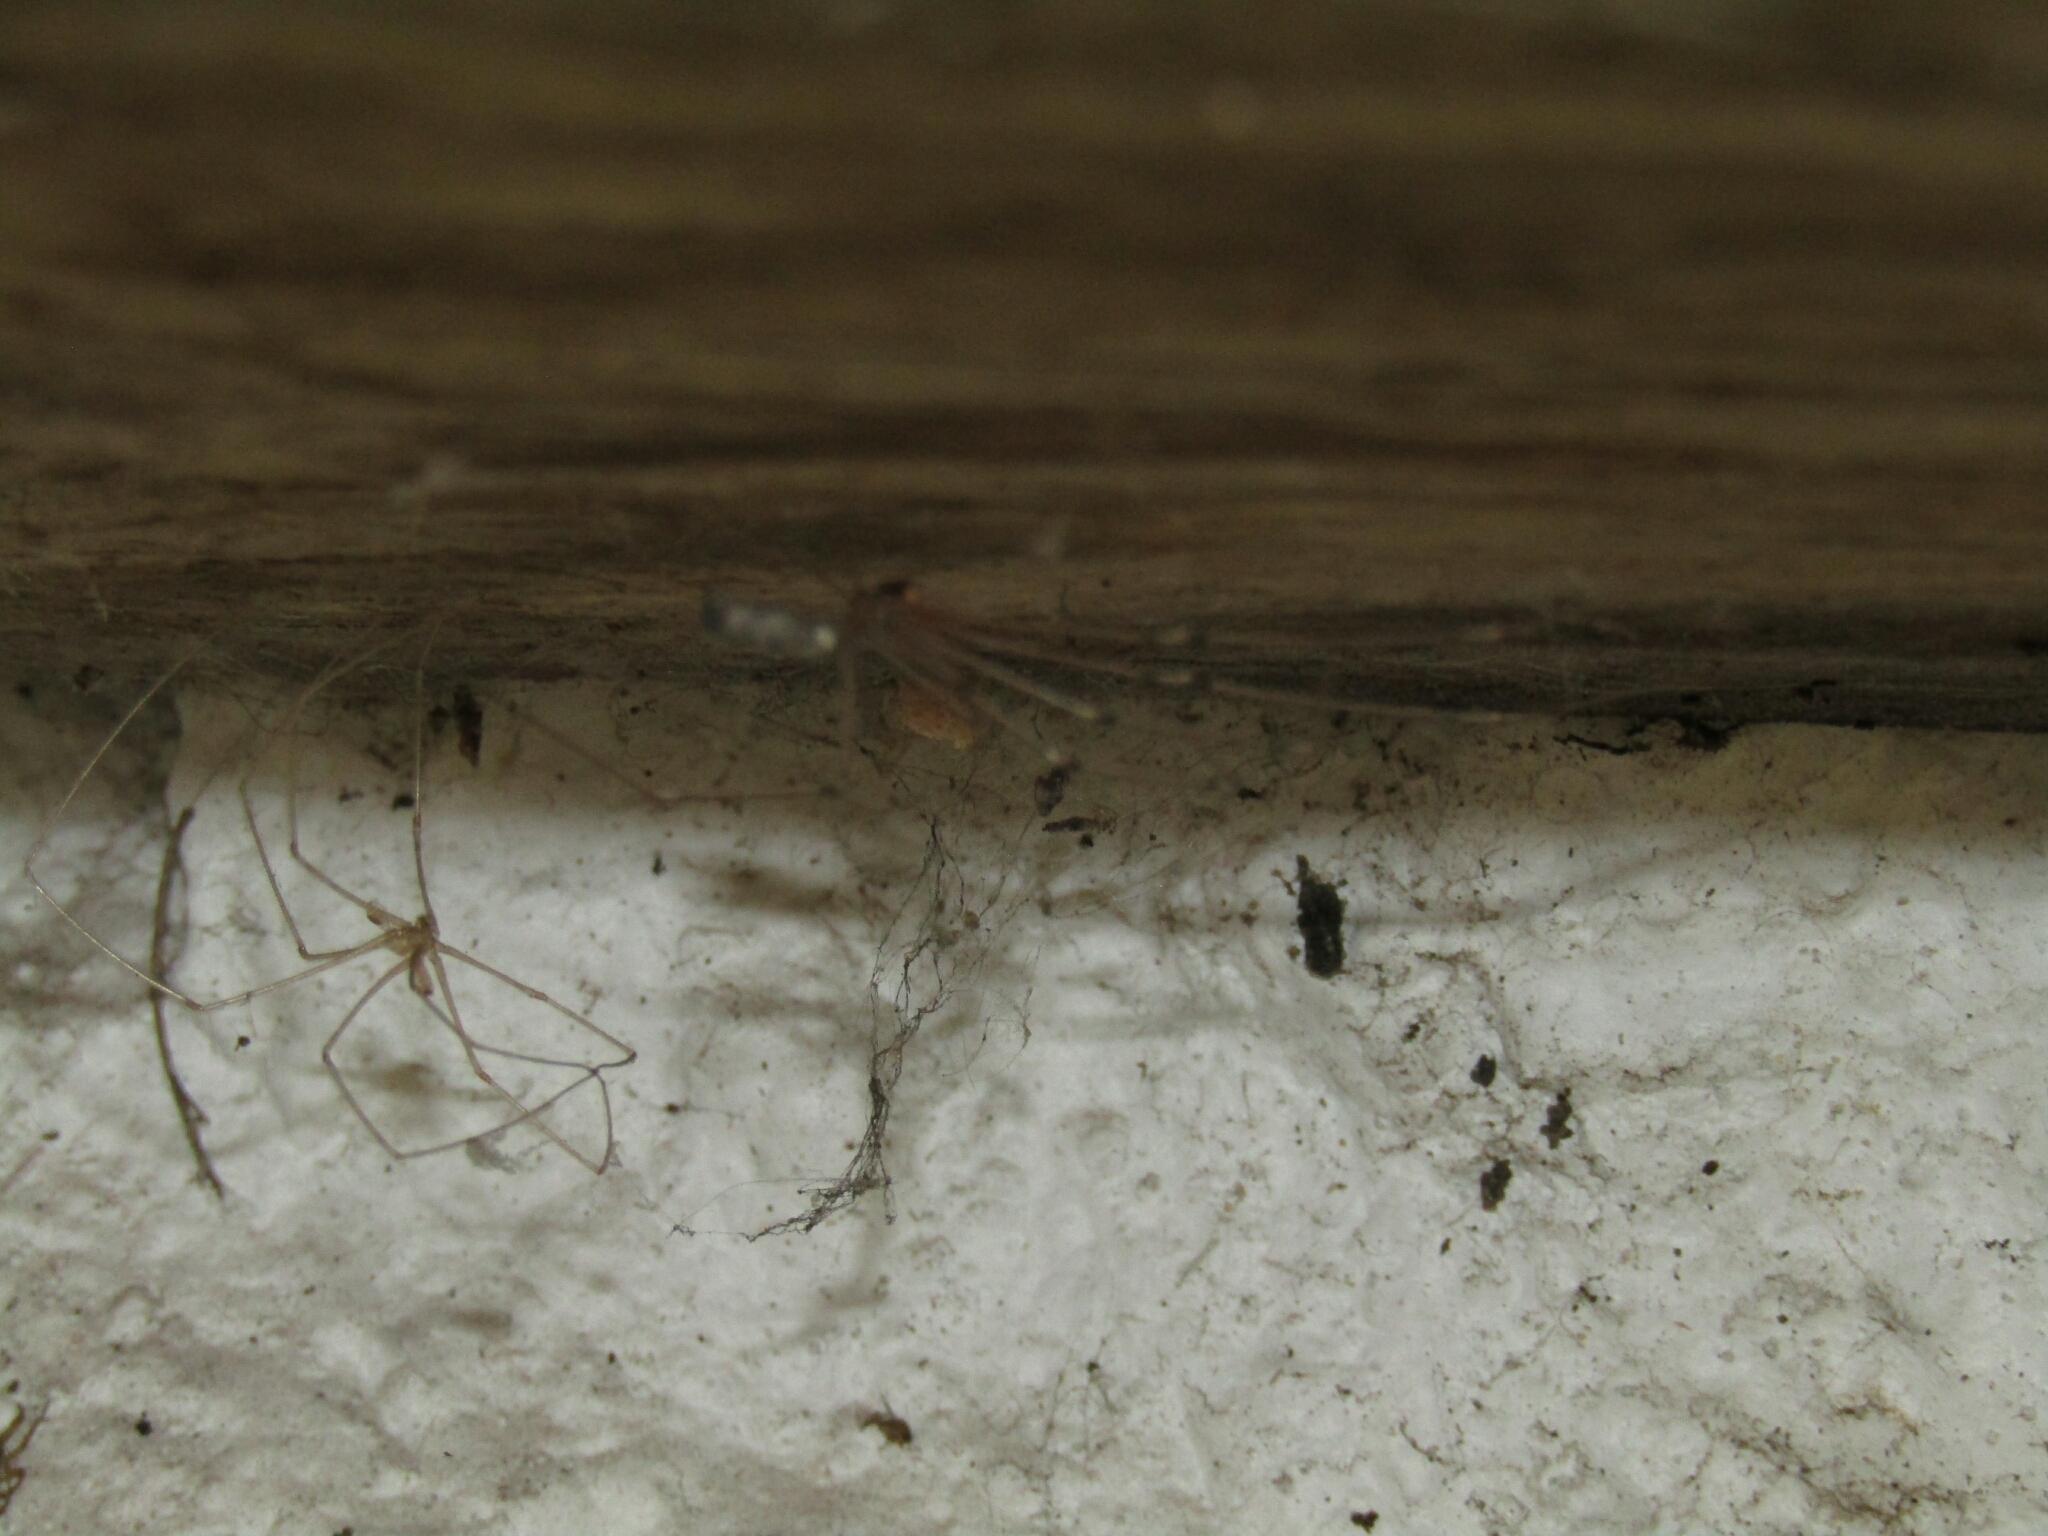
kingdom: Animalia
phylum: Arthropoda
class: Arachnida
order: Araneae
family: Pholcidae
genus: Pholcus
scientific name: Pholcus phalangioides
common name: Longbodied cellar spider
